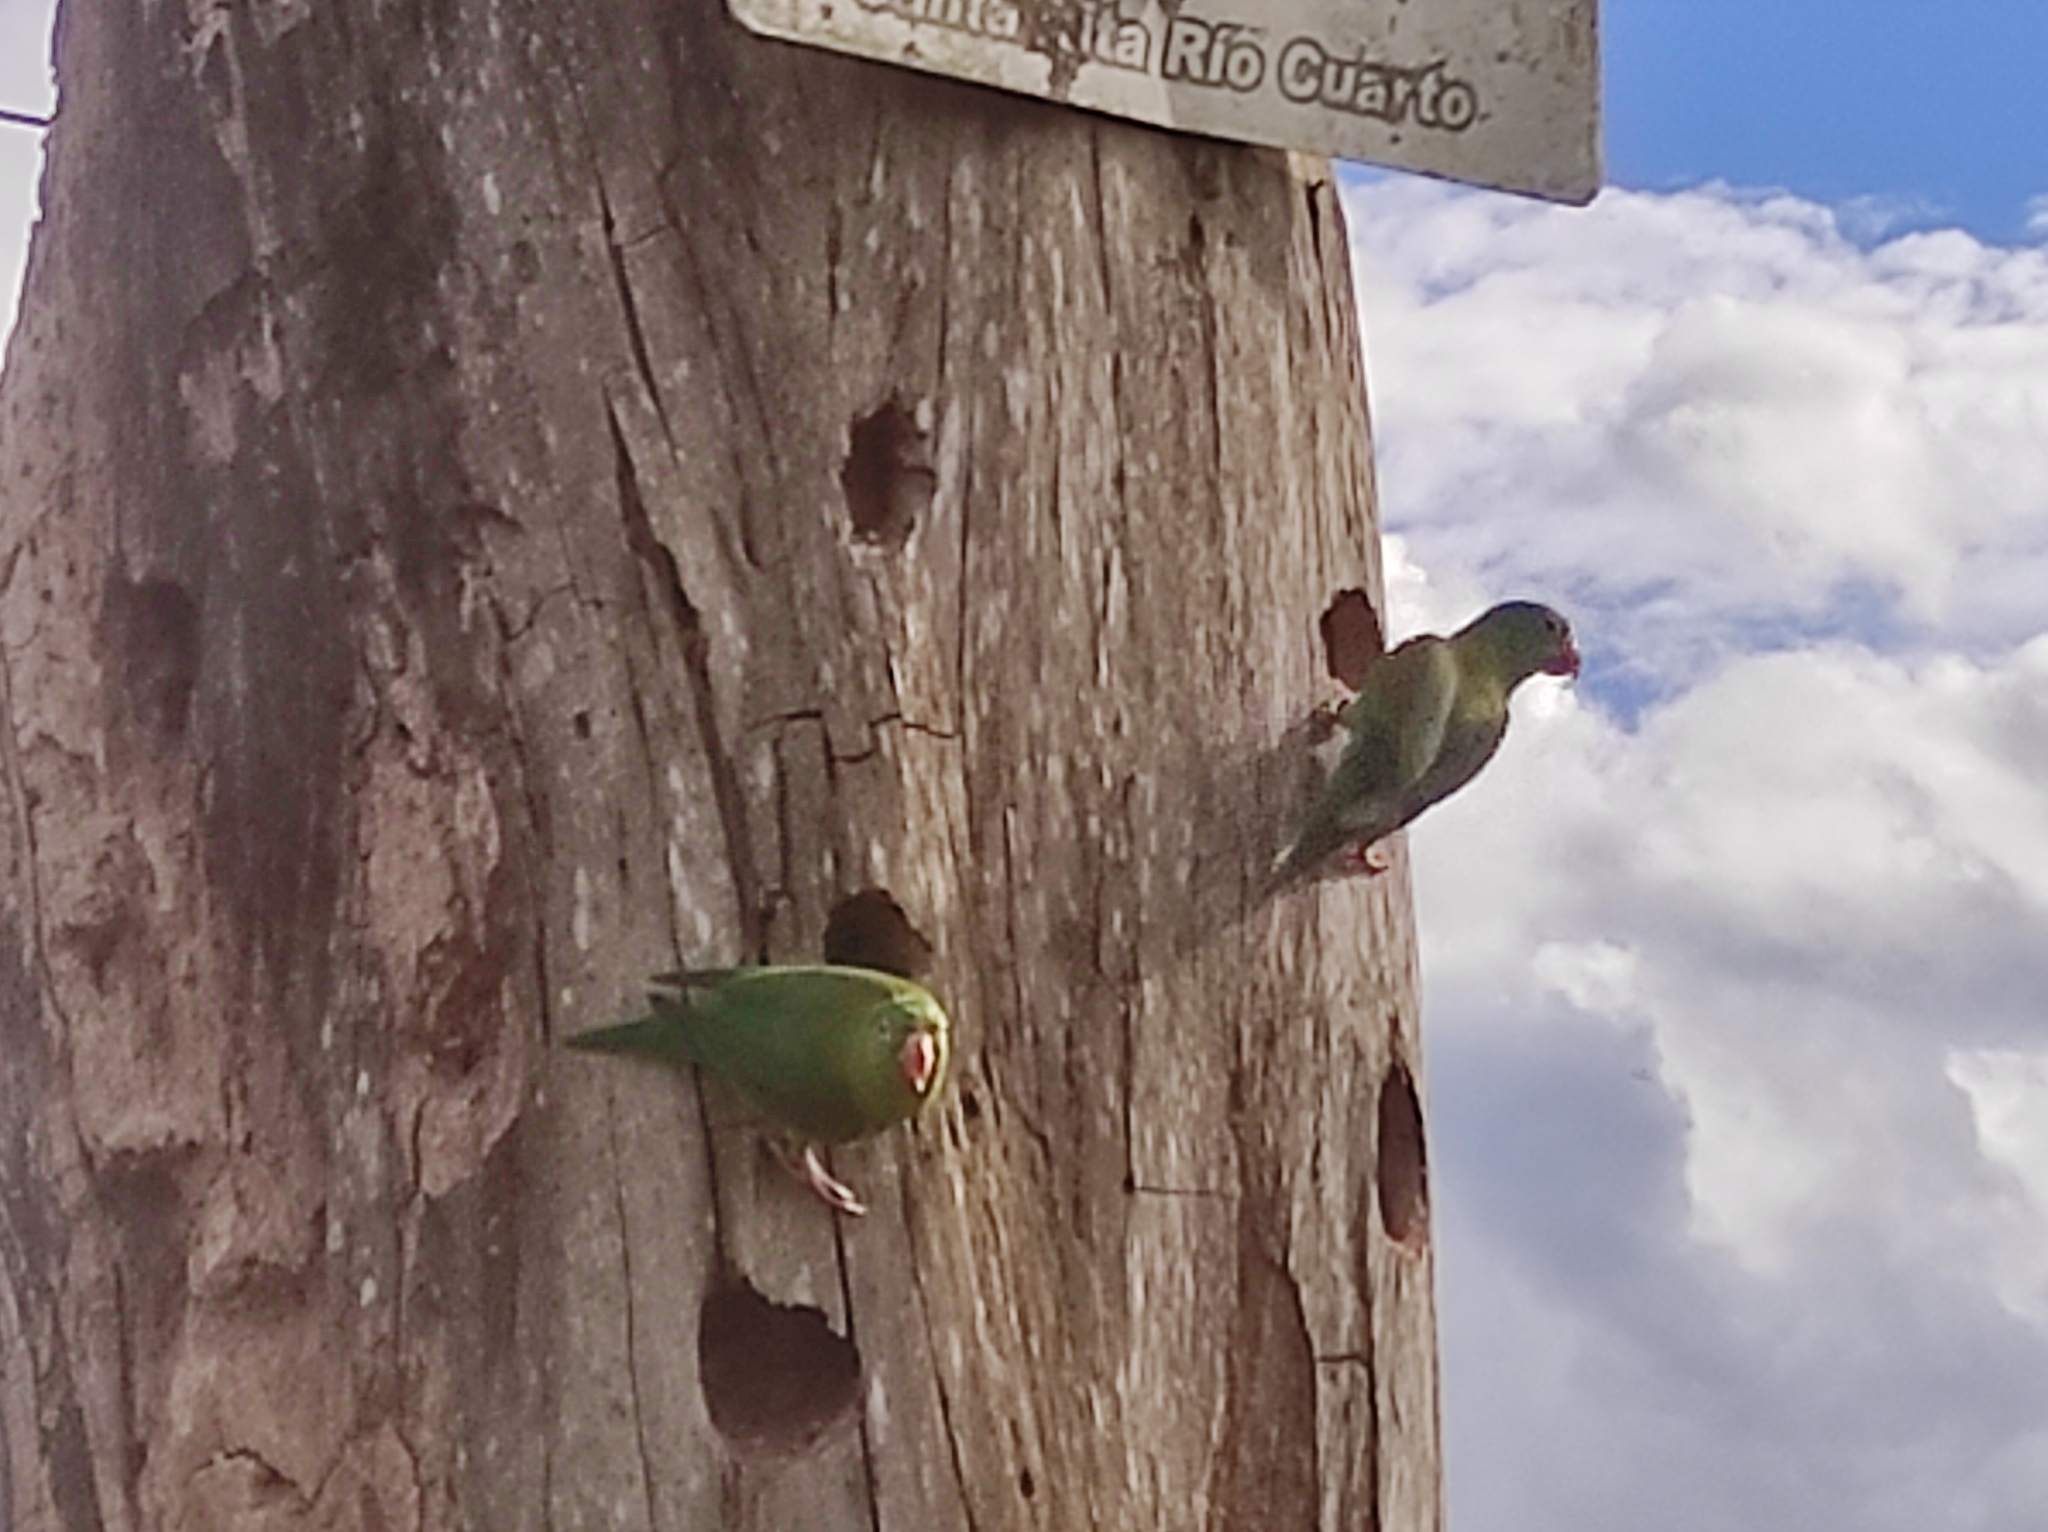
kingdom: Animalia
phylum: Chordata
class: Aves
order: Psittaciformes
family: Psittacidae
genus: Brotogeris
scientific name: Brotogeris jugularis
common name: Orange-chinned parakeet
